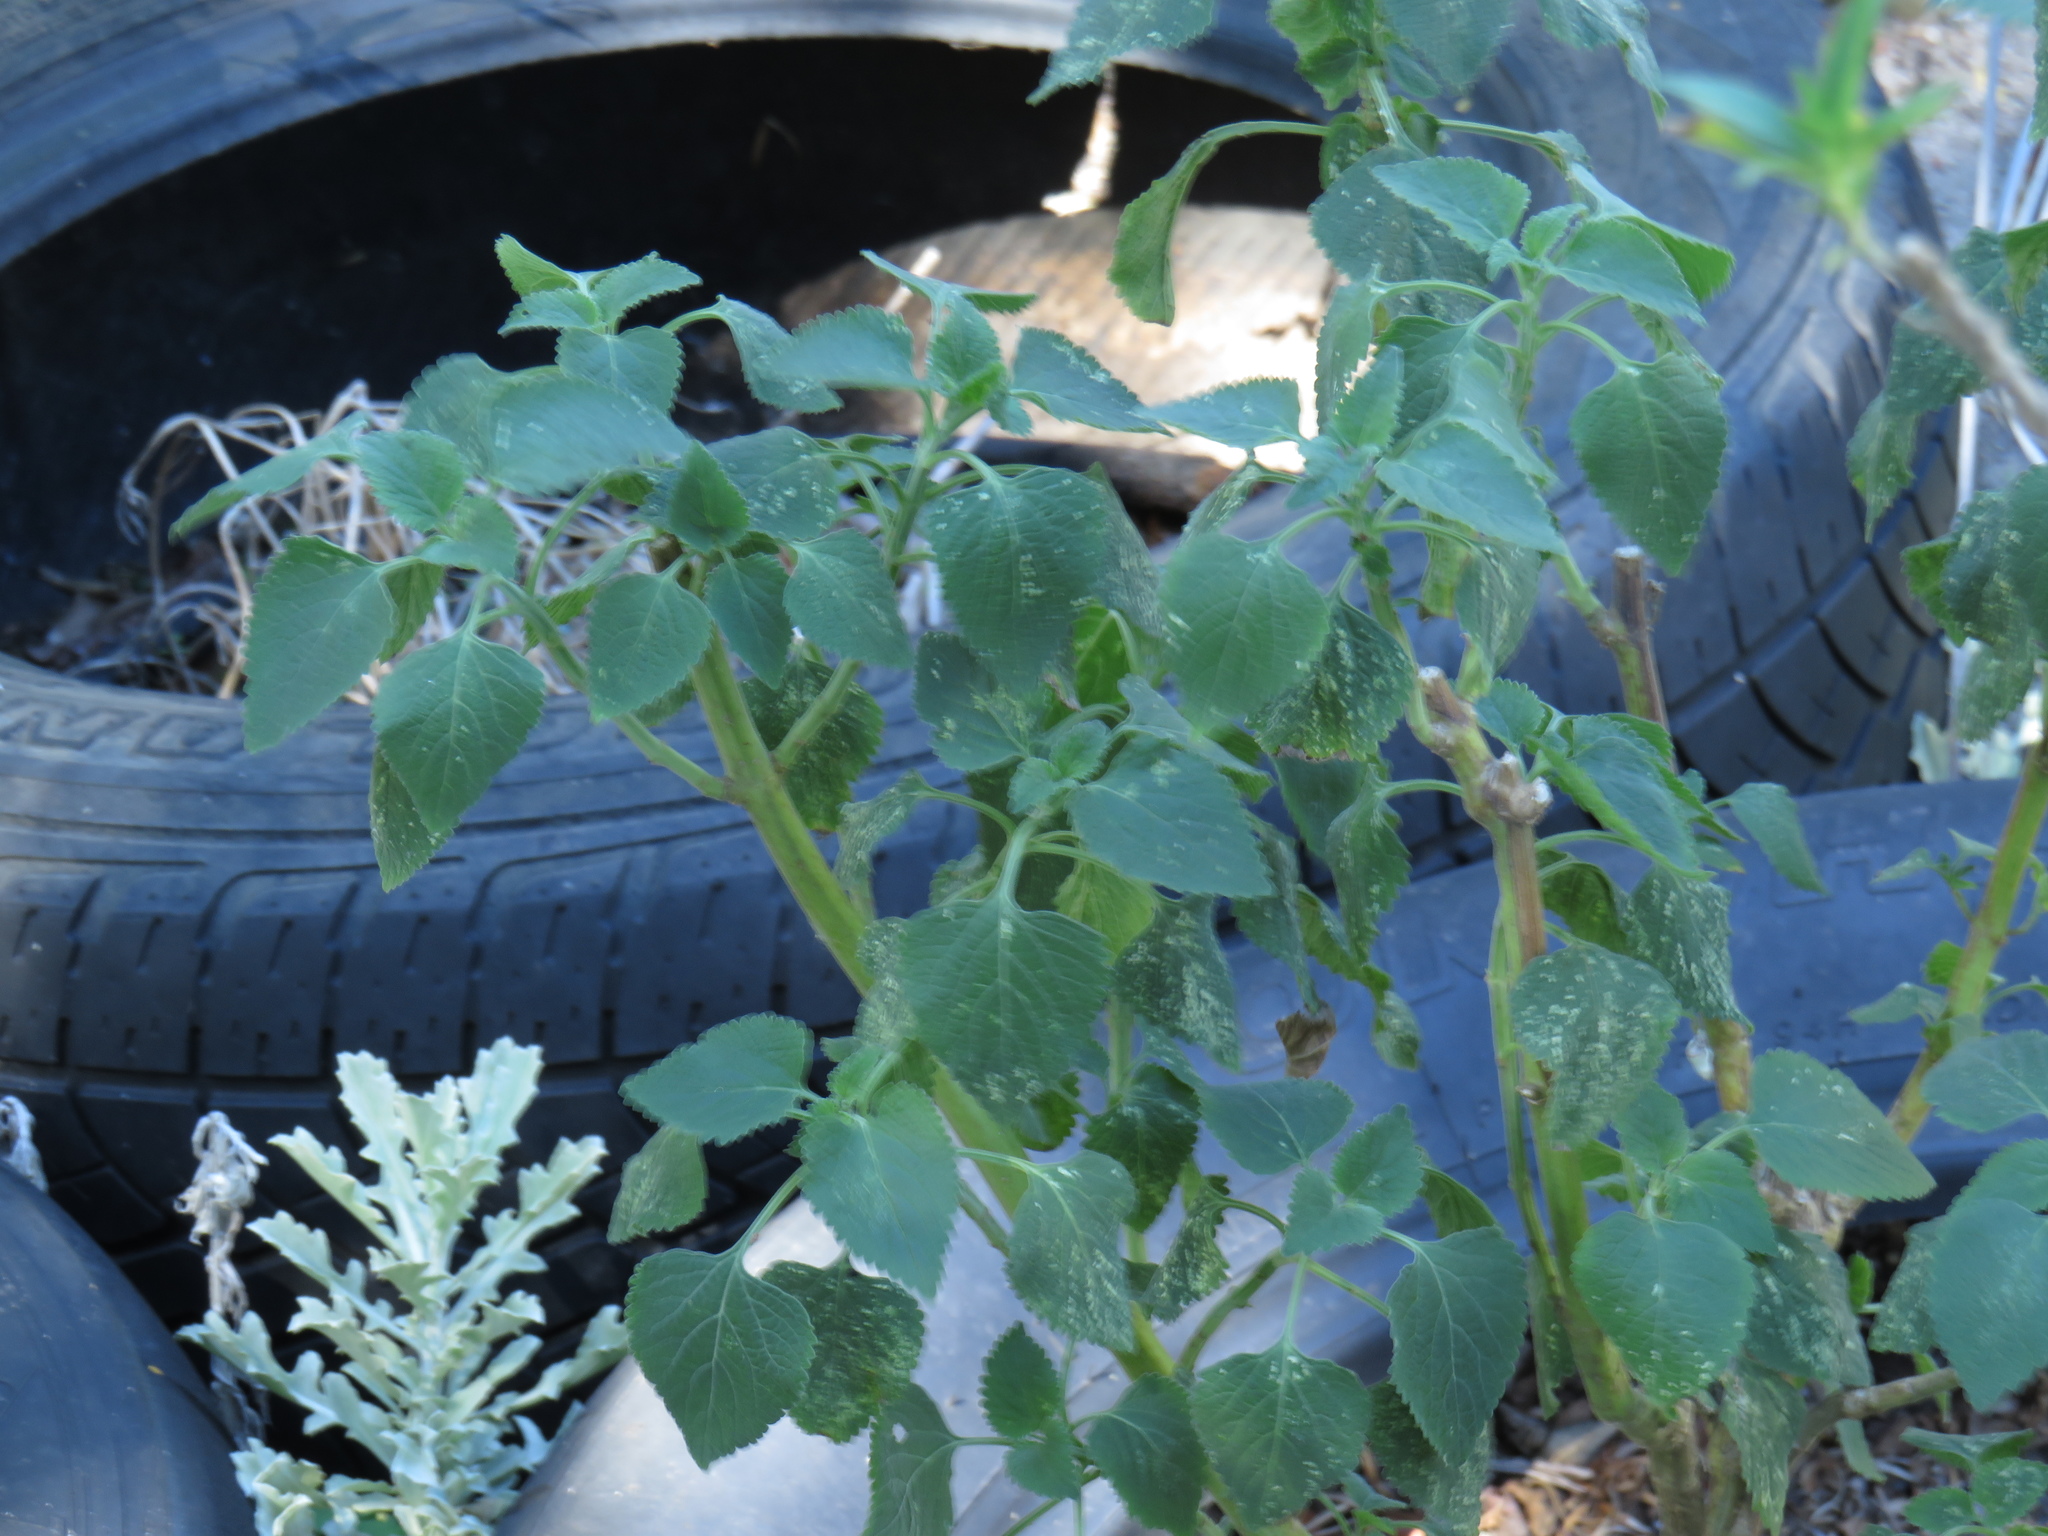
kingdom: Plantae
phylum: Tracheophyta
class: Magnoliopsida
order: Lamiales
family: Lamiaceae
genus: Leonotis
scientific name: Leonotis nepetifolia
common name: Christmas candlestick
